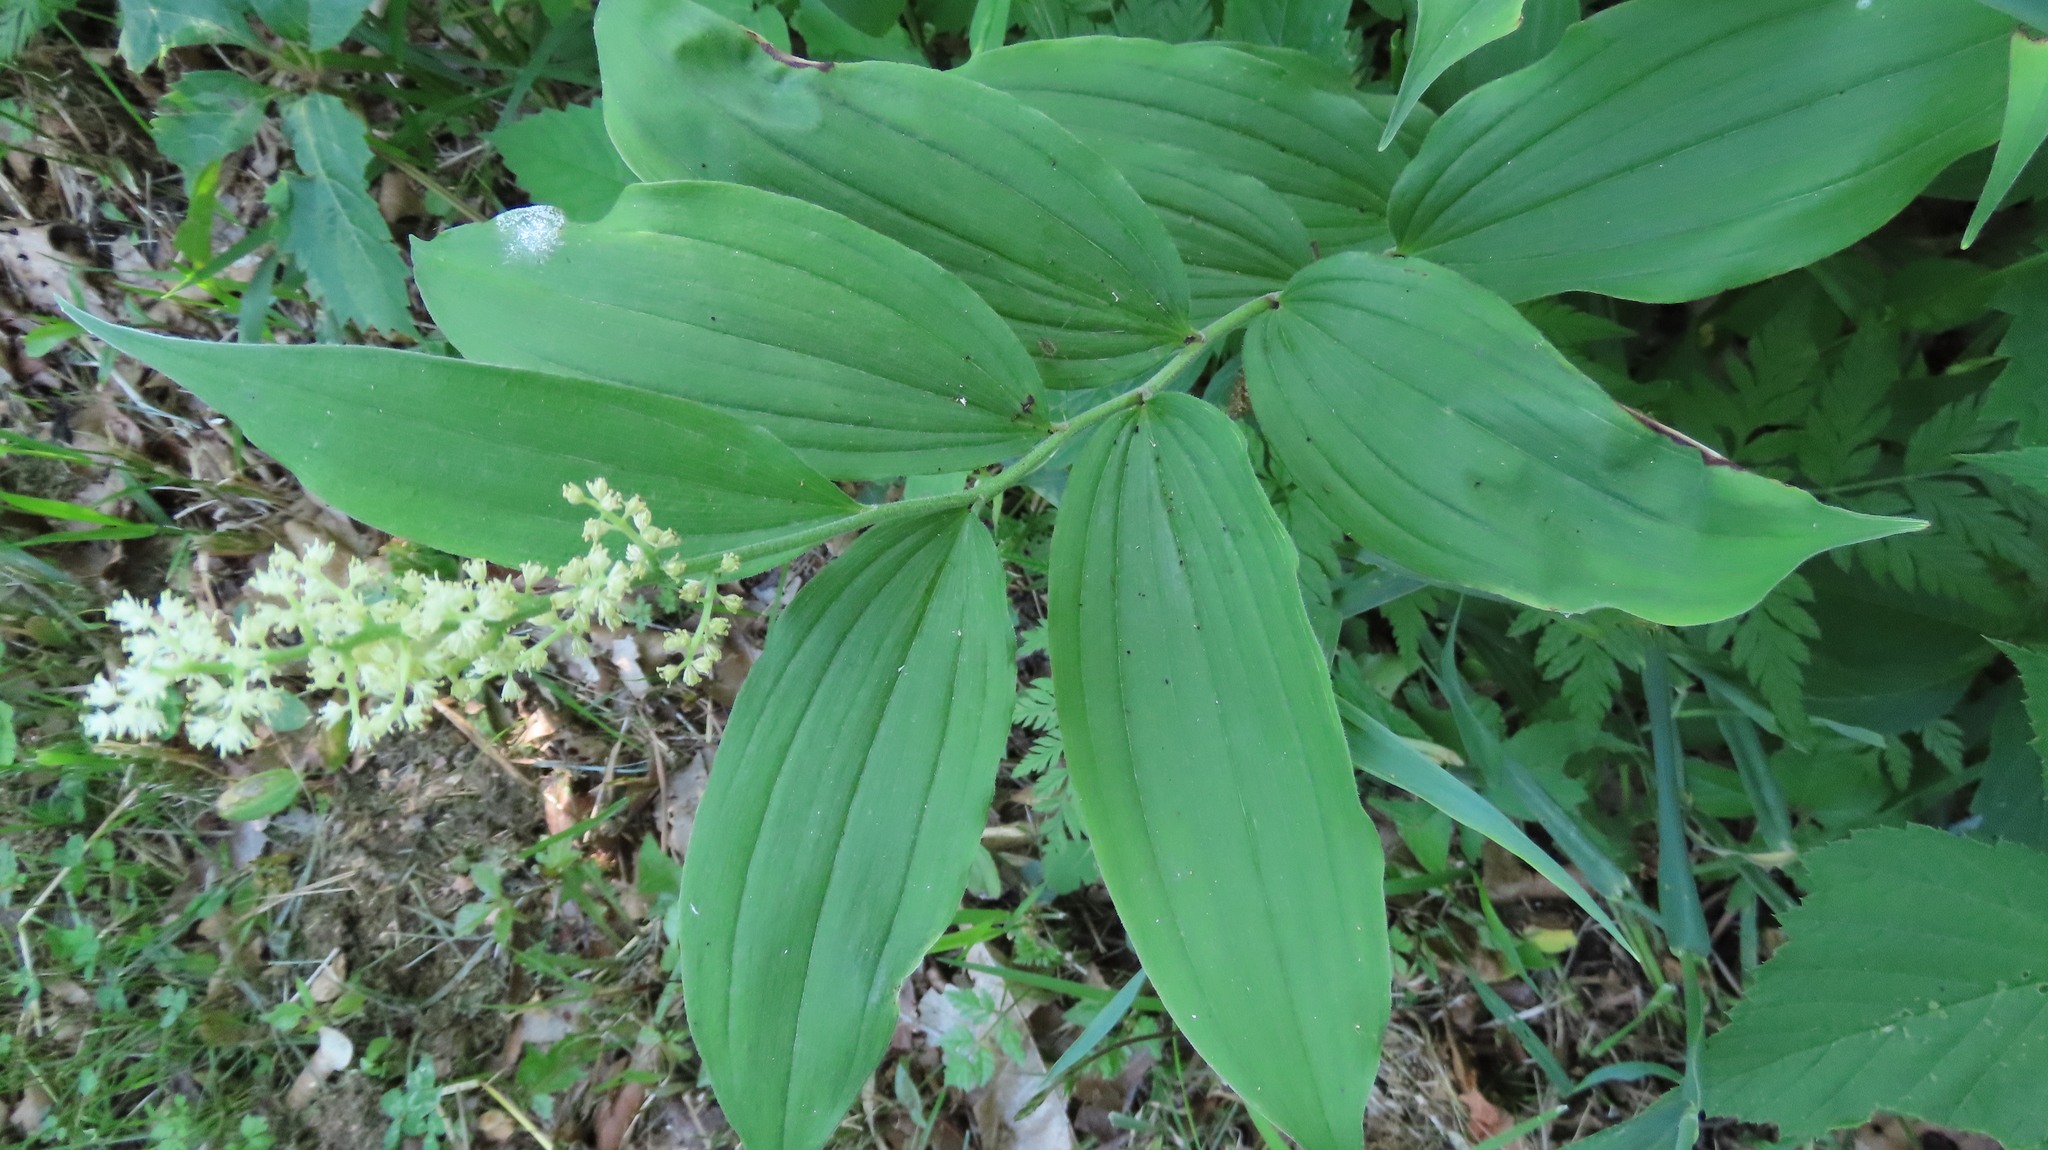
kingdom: Plantae
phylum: Tracheophyta
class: Liliopsida
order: Asparagales
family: Asparagaceae
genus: Maianthemum
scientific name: Maianthemum racemosum
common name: False spikenard
